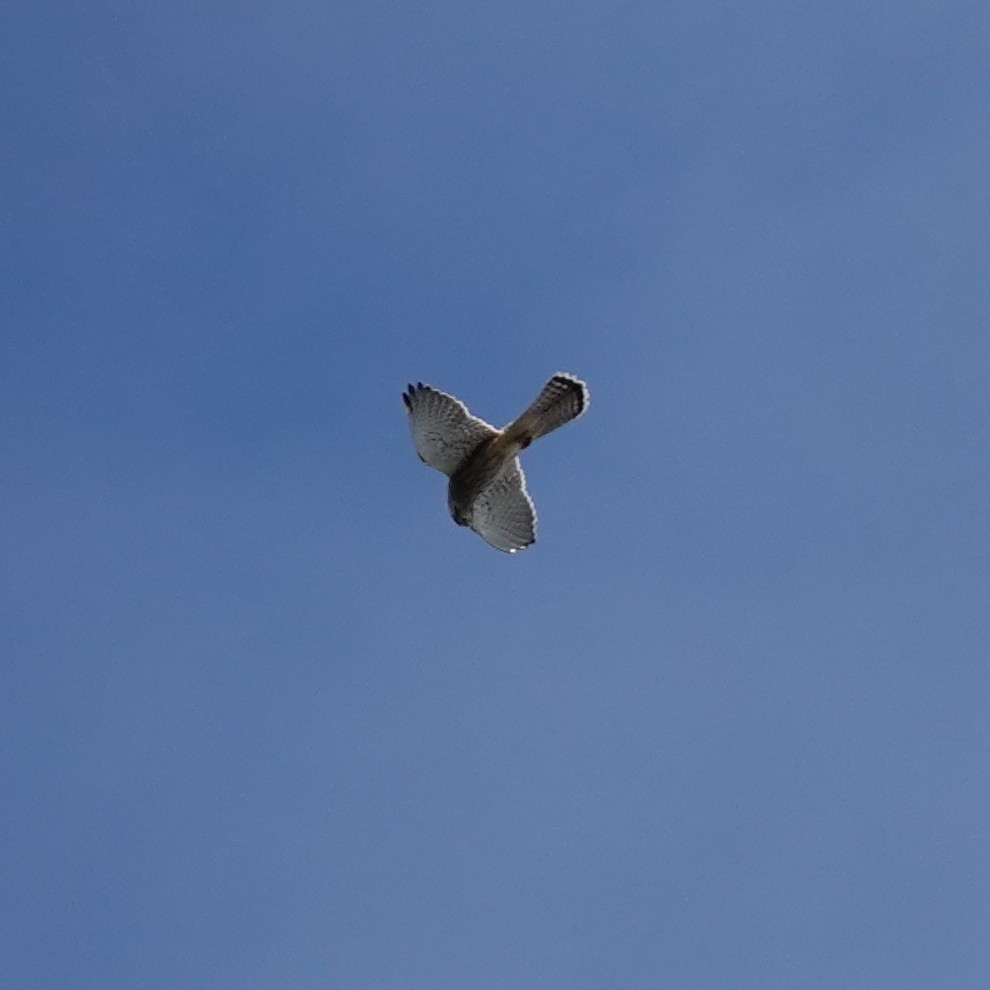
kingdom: Animalia
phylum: Chordata
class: Aves
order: Falconiformes
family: Falconidae
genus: Falco
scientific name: Falco tinnunculus
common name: Common kestrel
